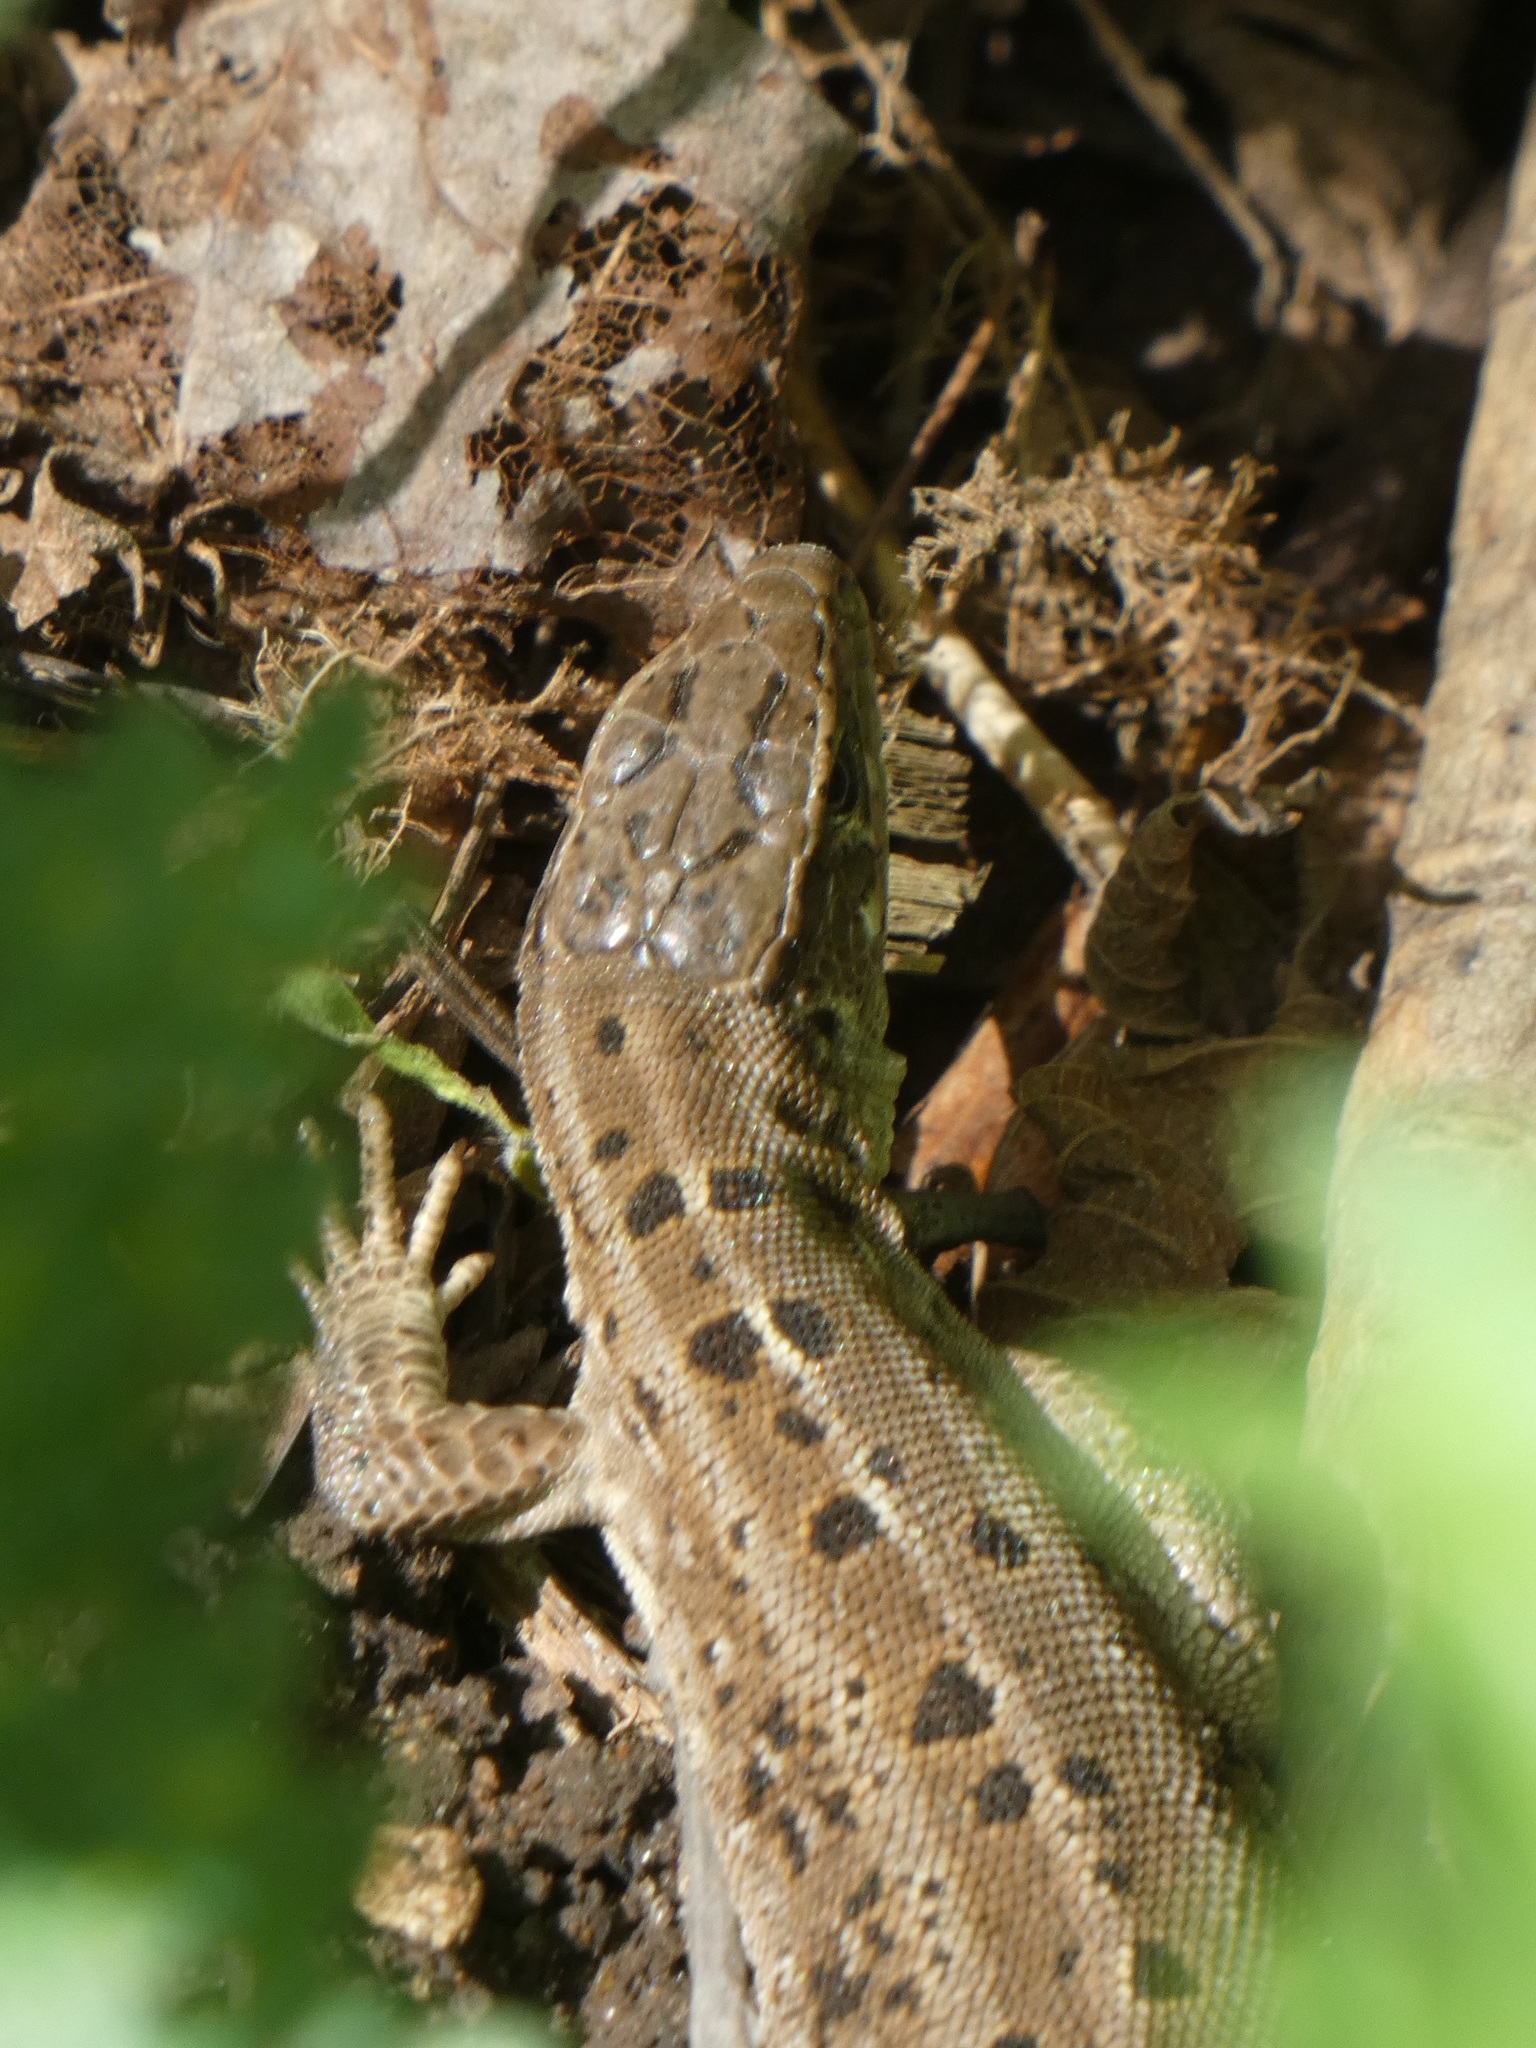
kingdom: Animalia
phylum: Chordata
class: Squamata
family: Lacertidae
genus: Lacerta
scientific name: Lacerta agilis
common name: Sand lizard
